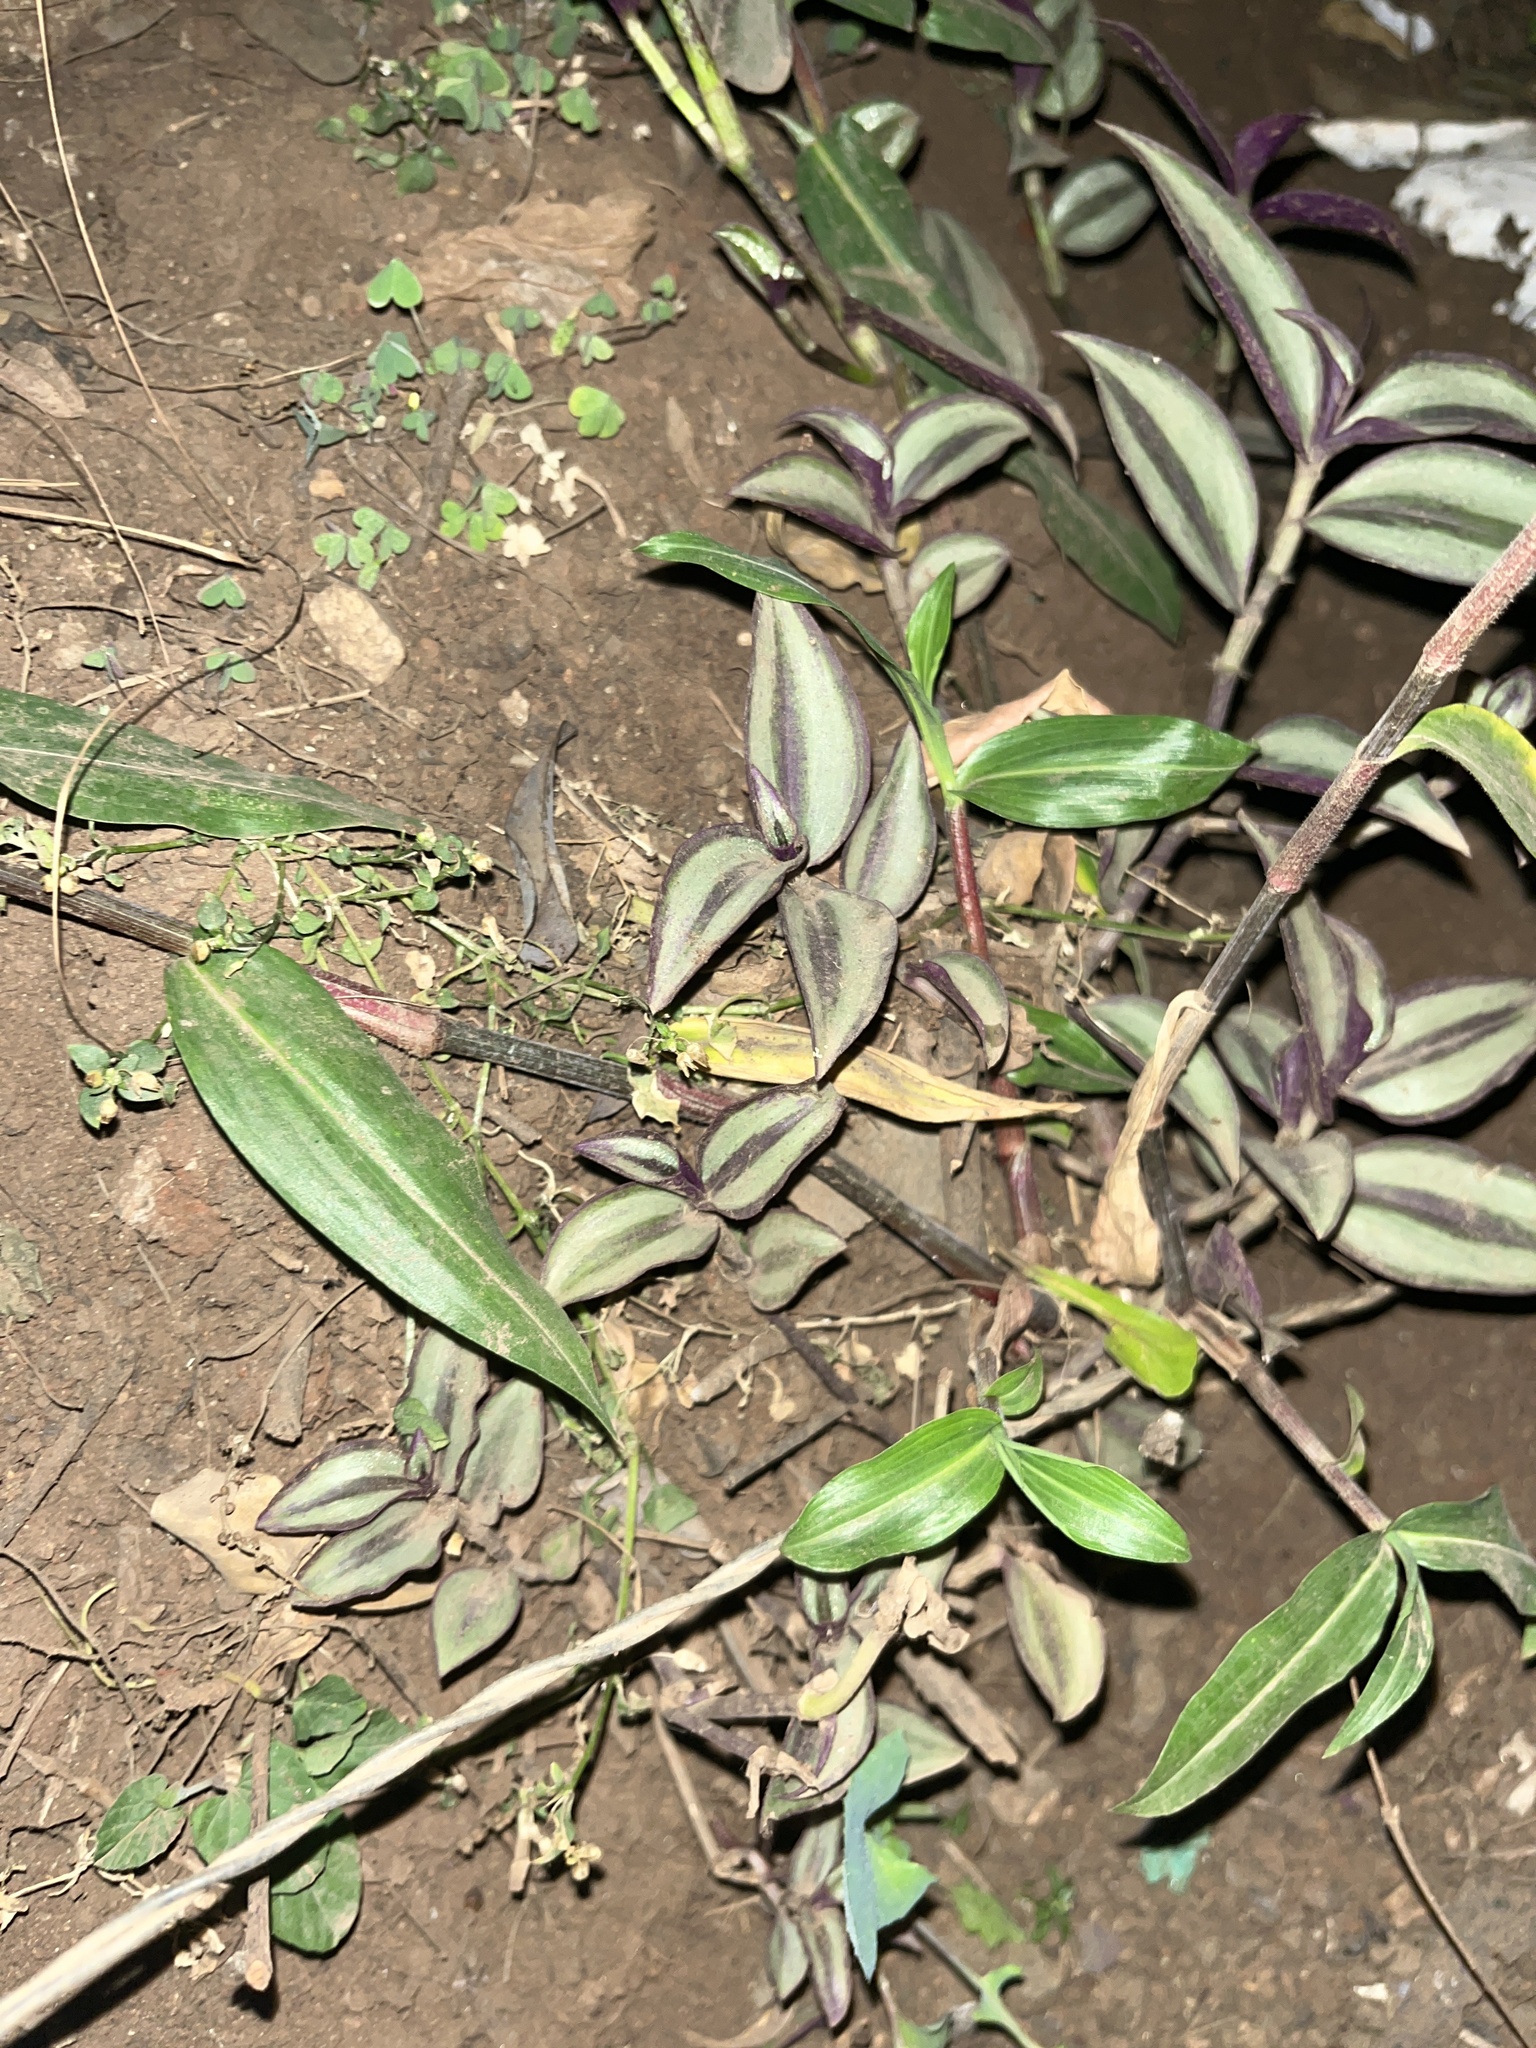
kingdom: Plantae
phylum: Tracheophyta
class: Liliopsida
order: Commelinales
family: Commelinaceae
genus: Tradescantia
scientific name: Tradescantia zebrina
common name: Inchplant
